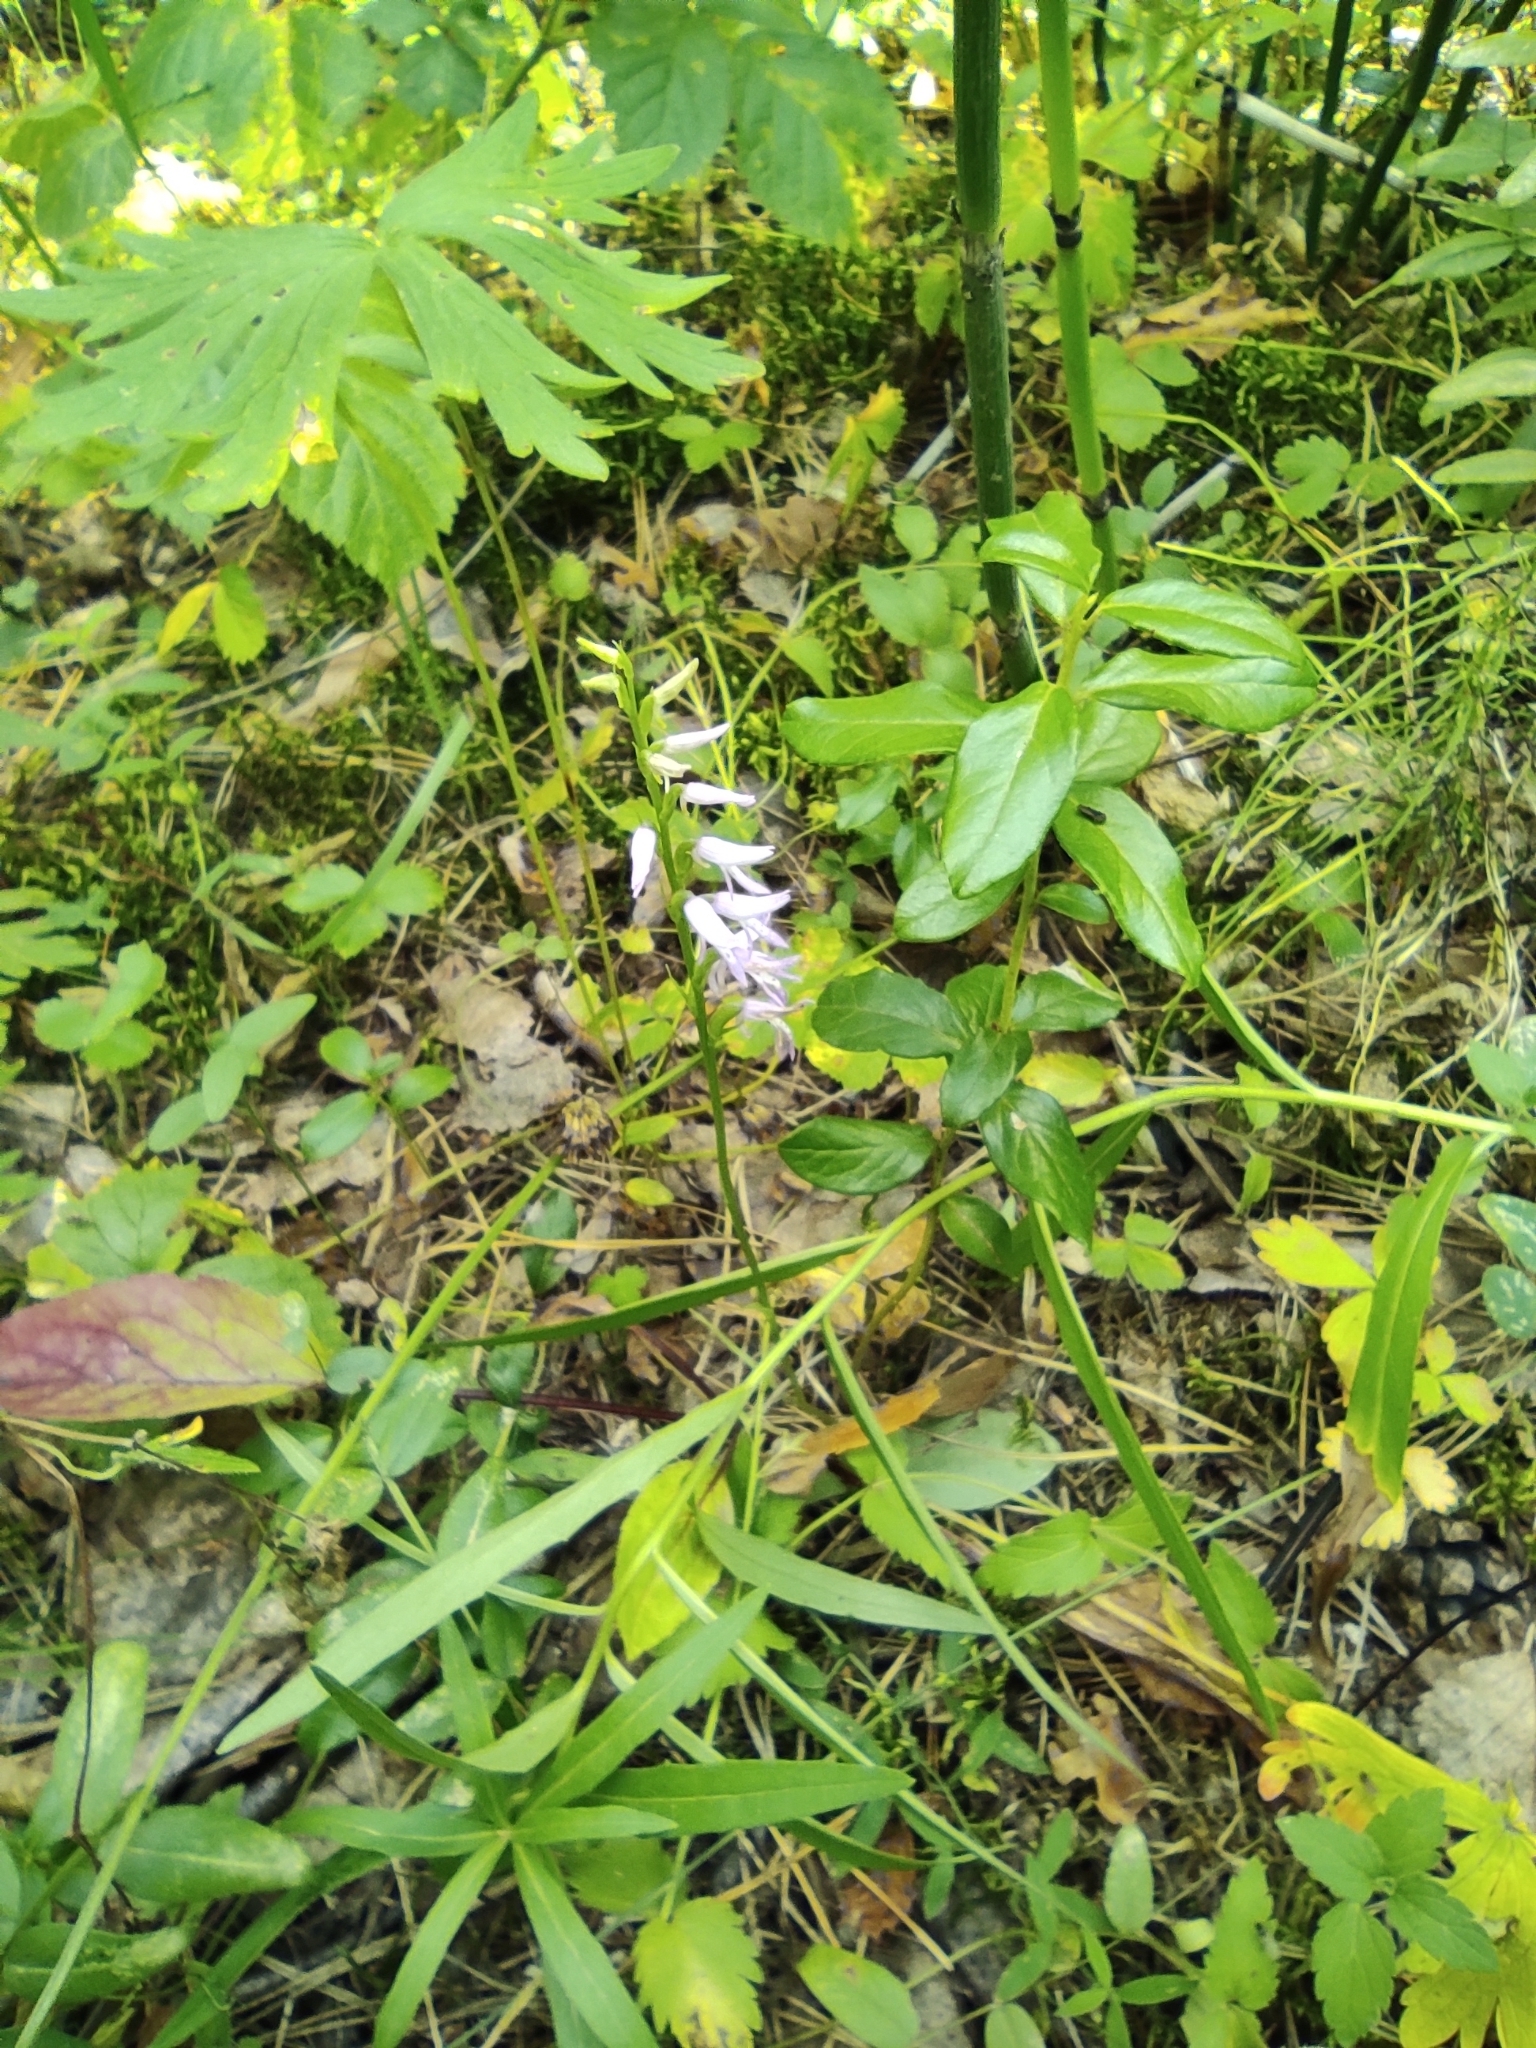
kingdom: Plantae
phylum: Tracheophyta
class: Liliopsida
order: Asparagales
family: Orchidaceae
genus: Hemipilia
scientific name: Hemipilia cucullata
